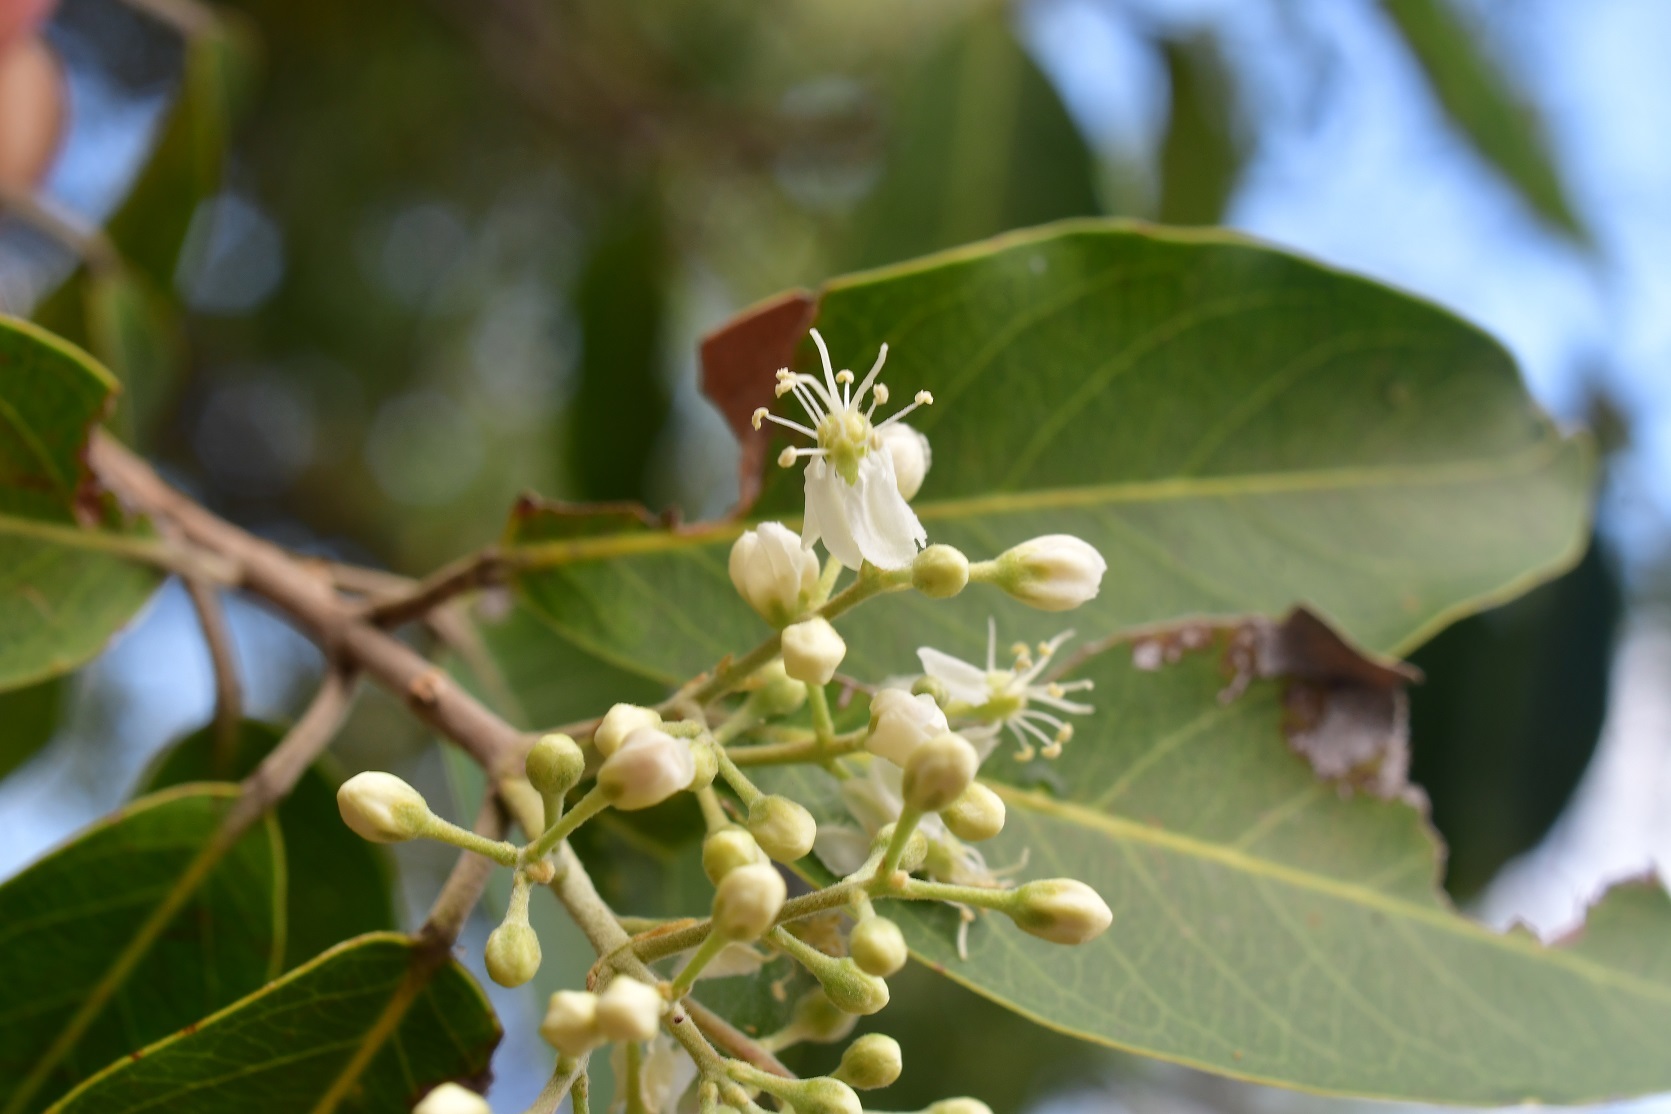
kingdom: Plantae
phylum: Tracheophyta
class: Magnoliopsida
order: Malpighiales
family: Malpighiaceae
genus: Psychopterys
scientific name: Psychopterys multiflora
